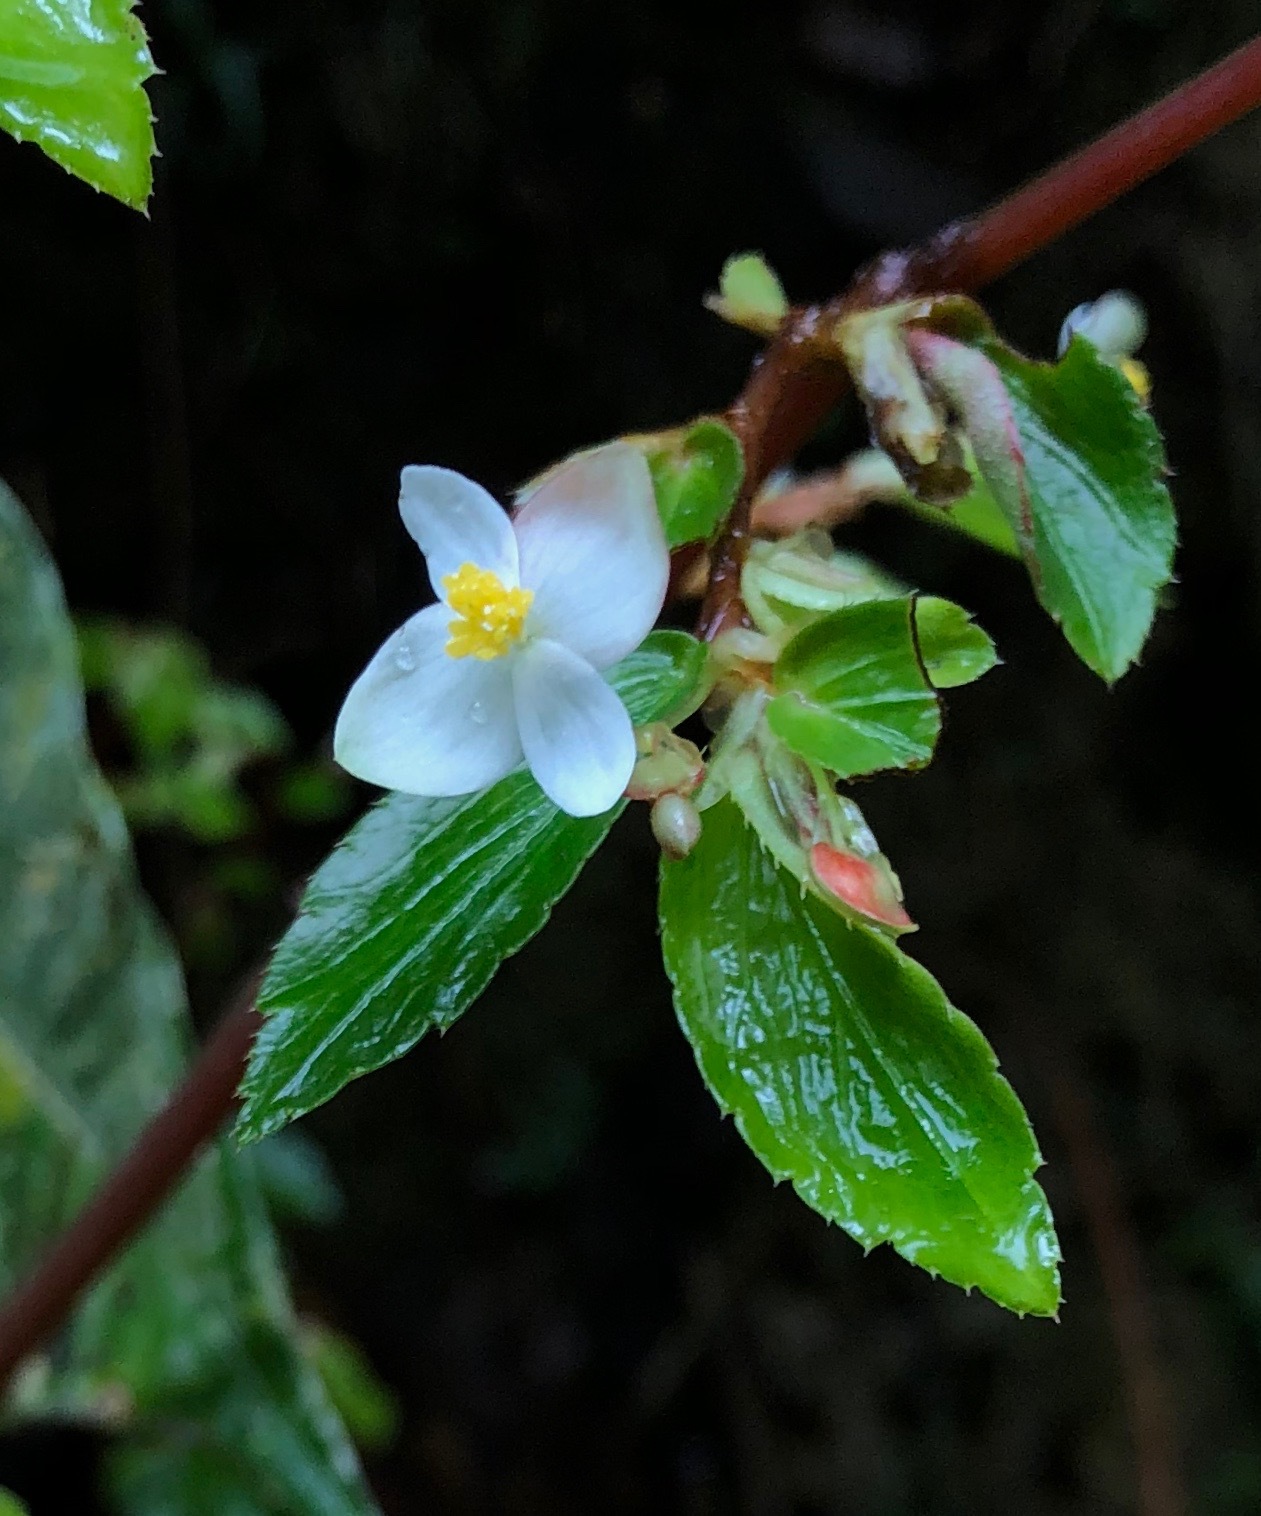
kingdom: Plantae
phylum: Tracheophyta
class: Magnoliopsida
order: Cucurbitales
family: Begoniaceae
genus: Begonia
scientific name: Begonia foliosa
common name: Fern begonia
